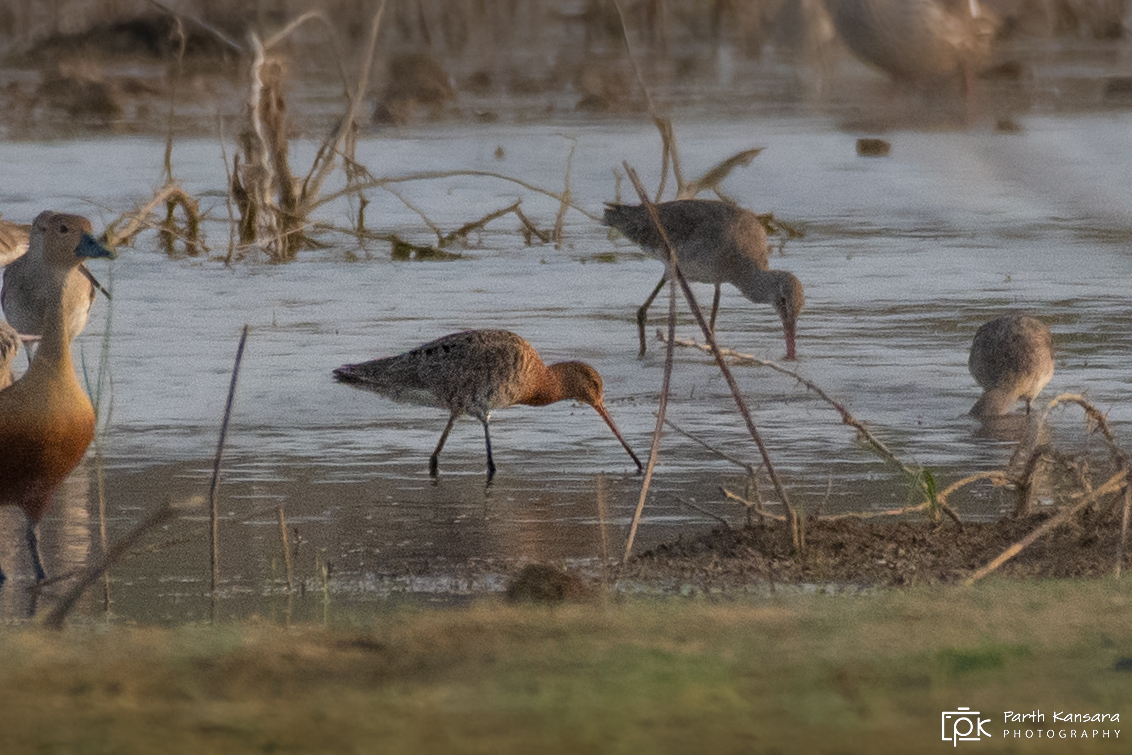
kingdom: Animalia
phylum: Chordata
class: Aves
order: Charadriiformes
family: Scolopacidae
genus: Limosa
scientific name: Limosa limosa
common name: Black-tailed godwit
